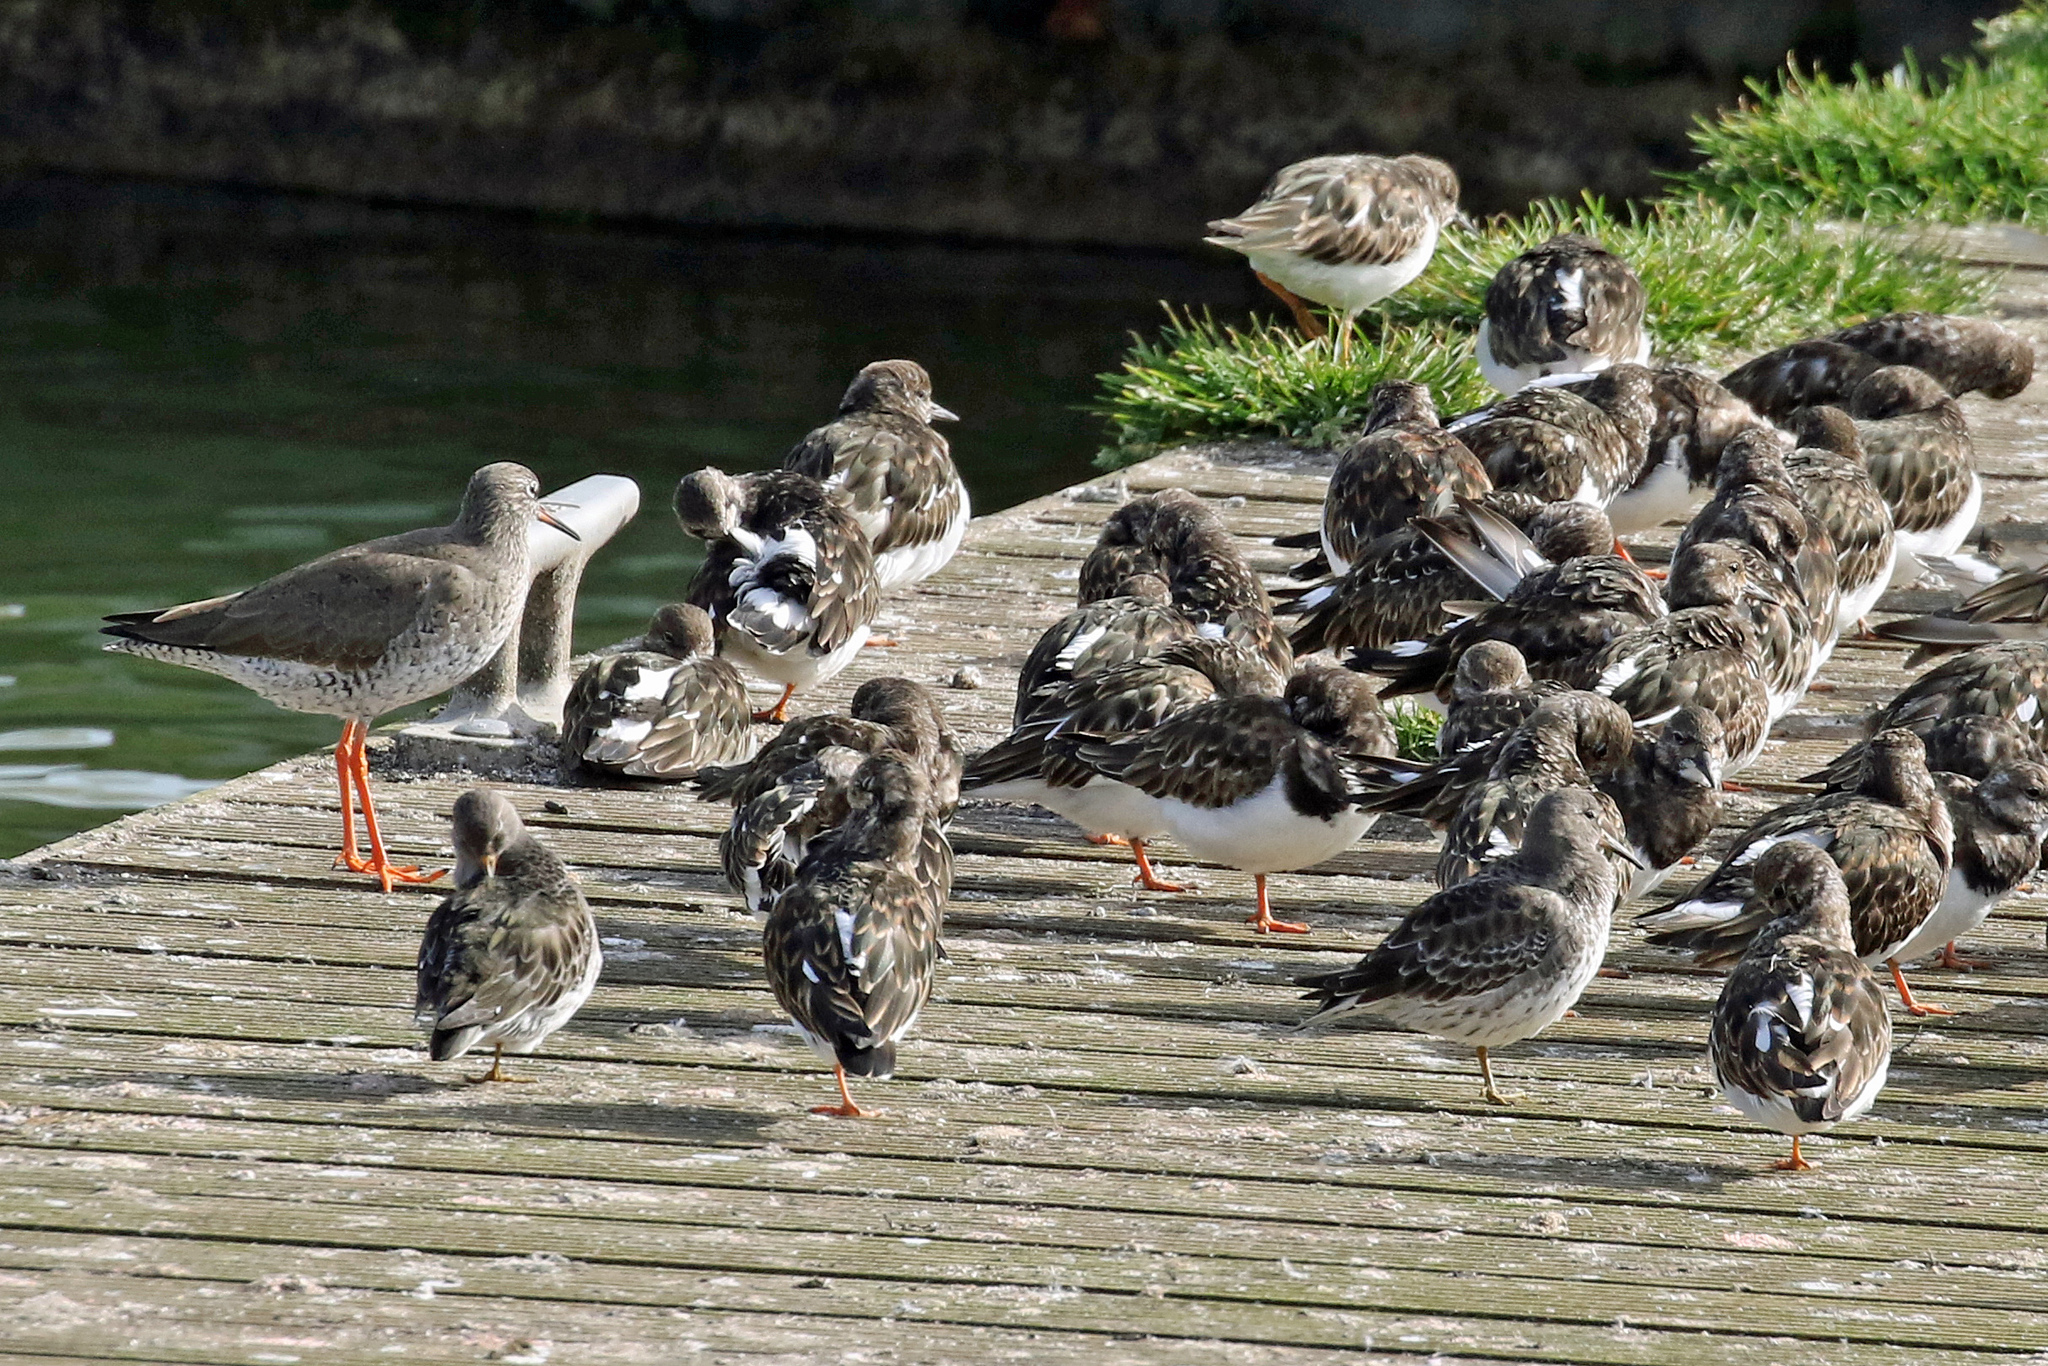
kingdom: Animalia
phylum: Chordata
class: Aves
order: Charadriiformes
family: Scolopacidae
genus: Tringa
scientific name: Tringa totanus
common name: Common redshank
